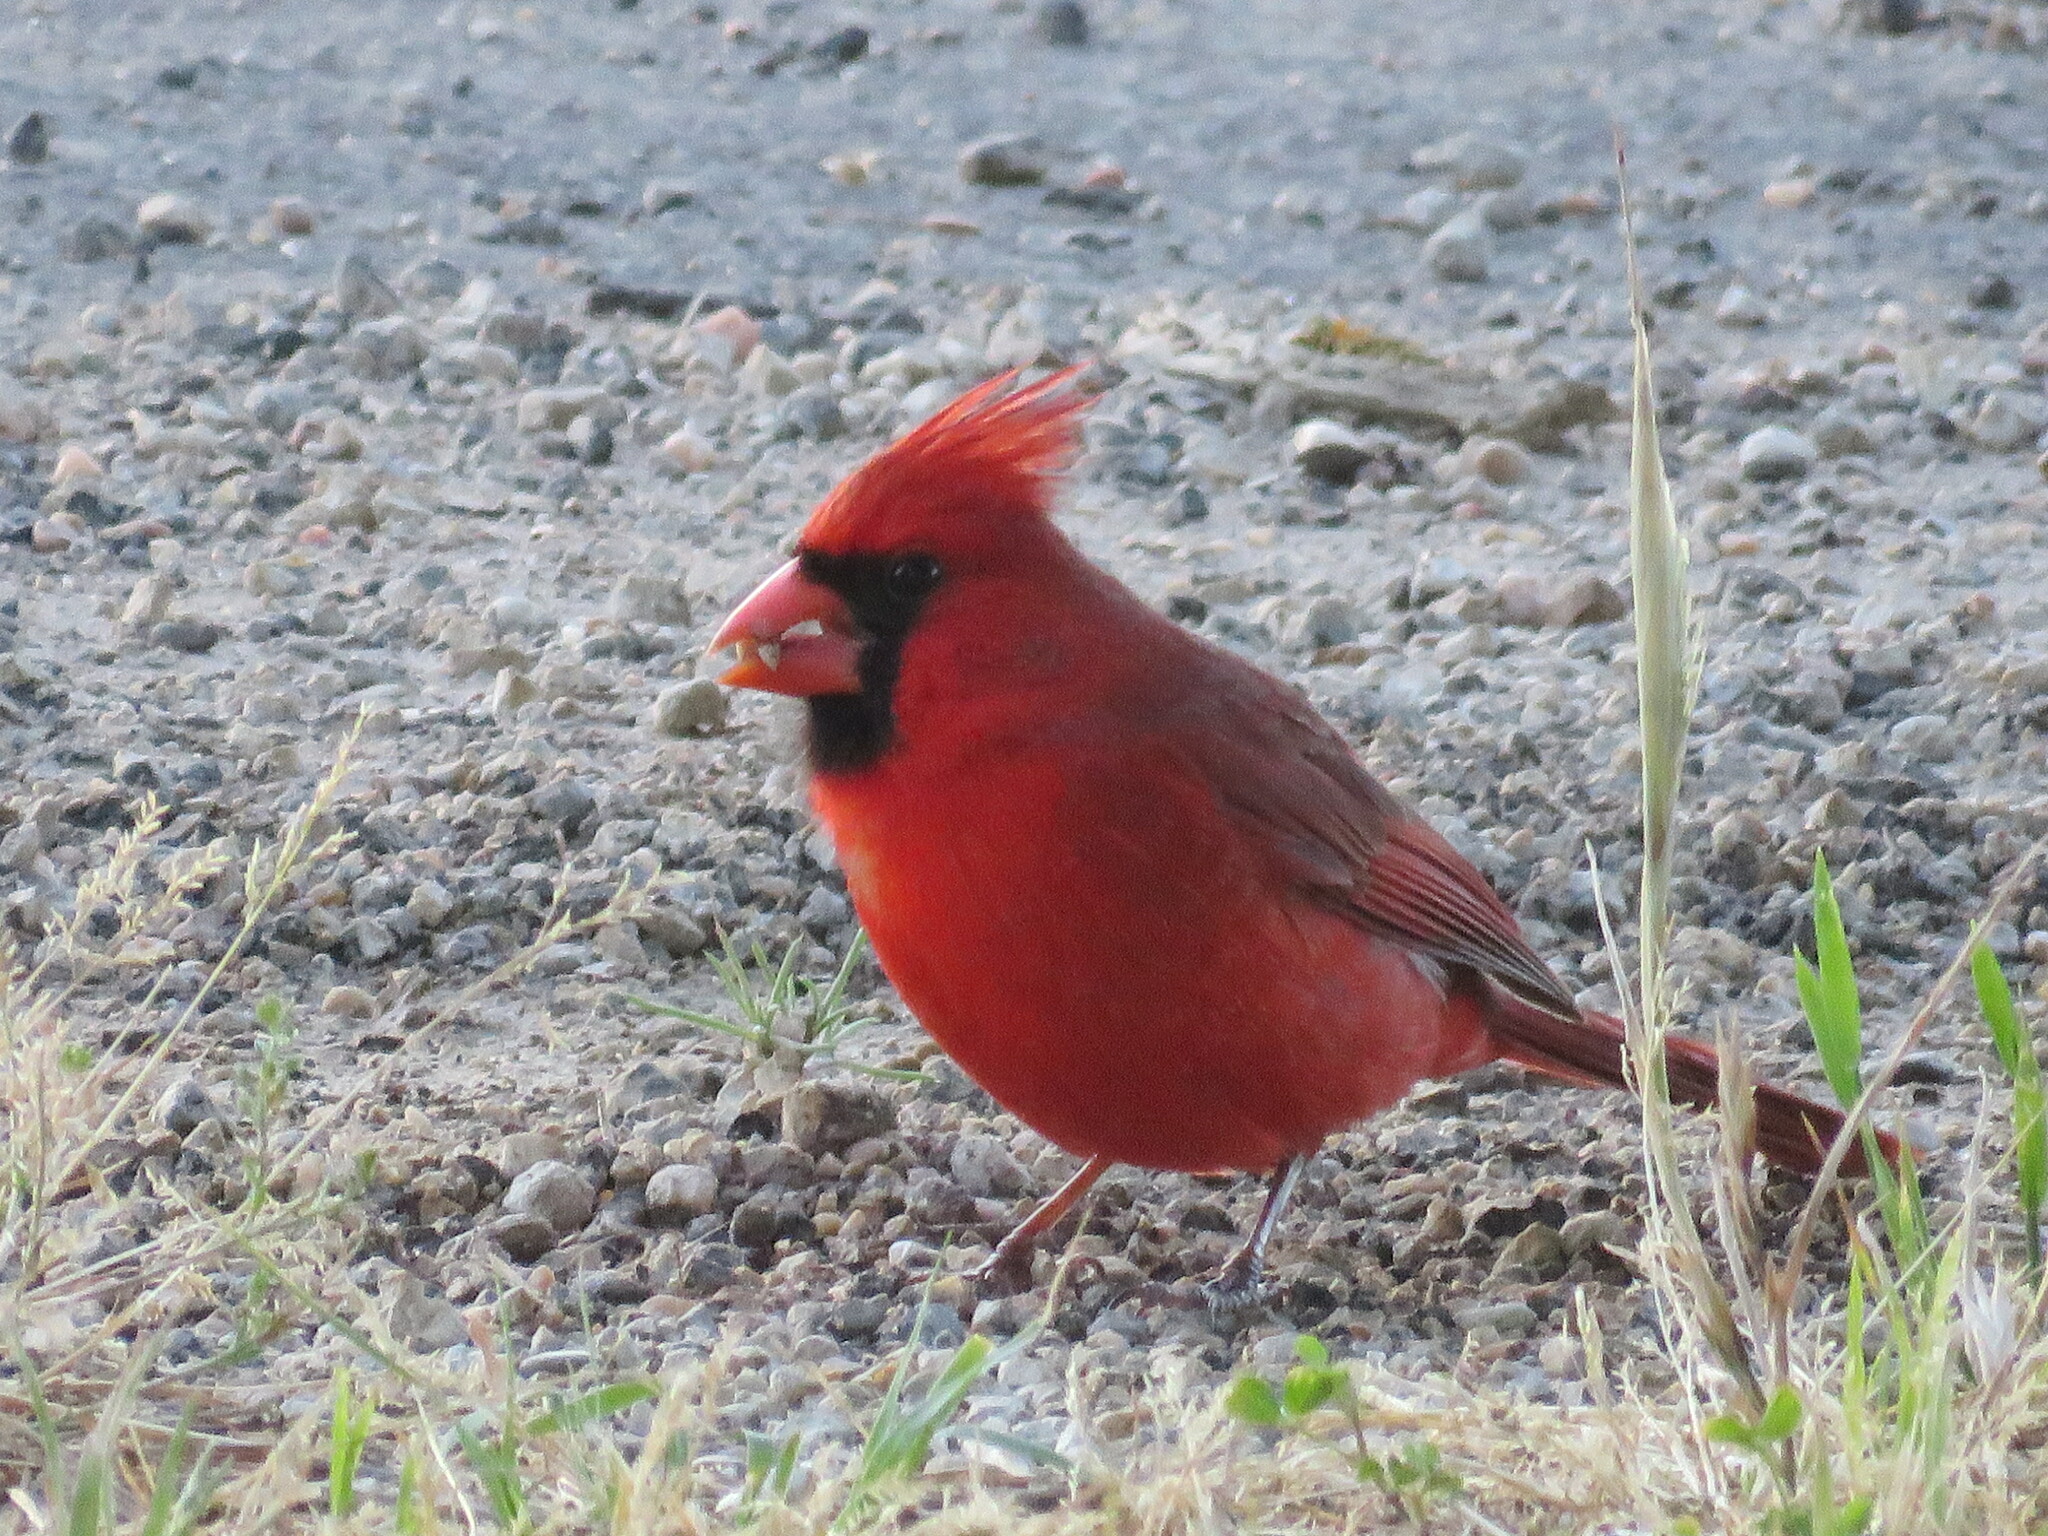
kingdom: Animalia
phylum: Chordata
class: Aves
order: Passeriformes
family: Cardinalidae
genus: Cardinalis
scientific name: Cardinalis cardinalis
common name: Northern cardinal
